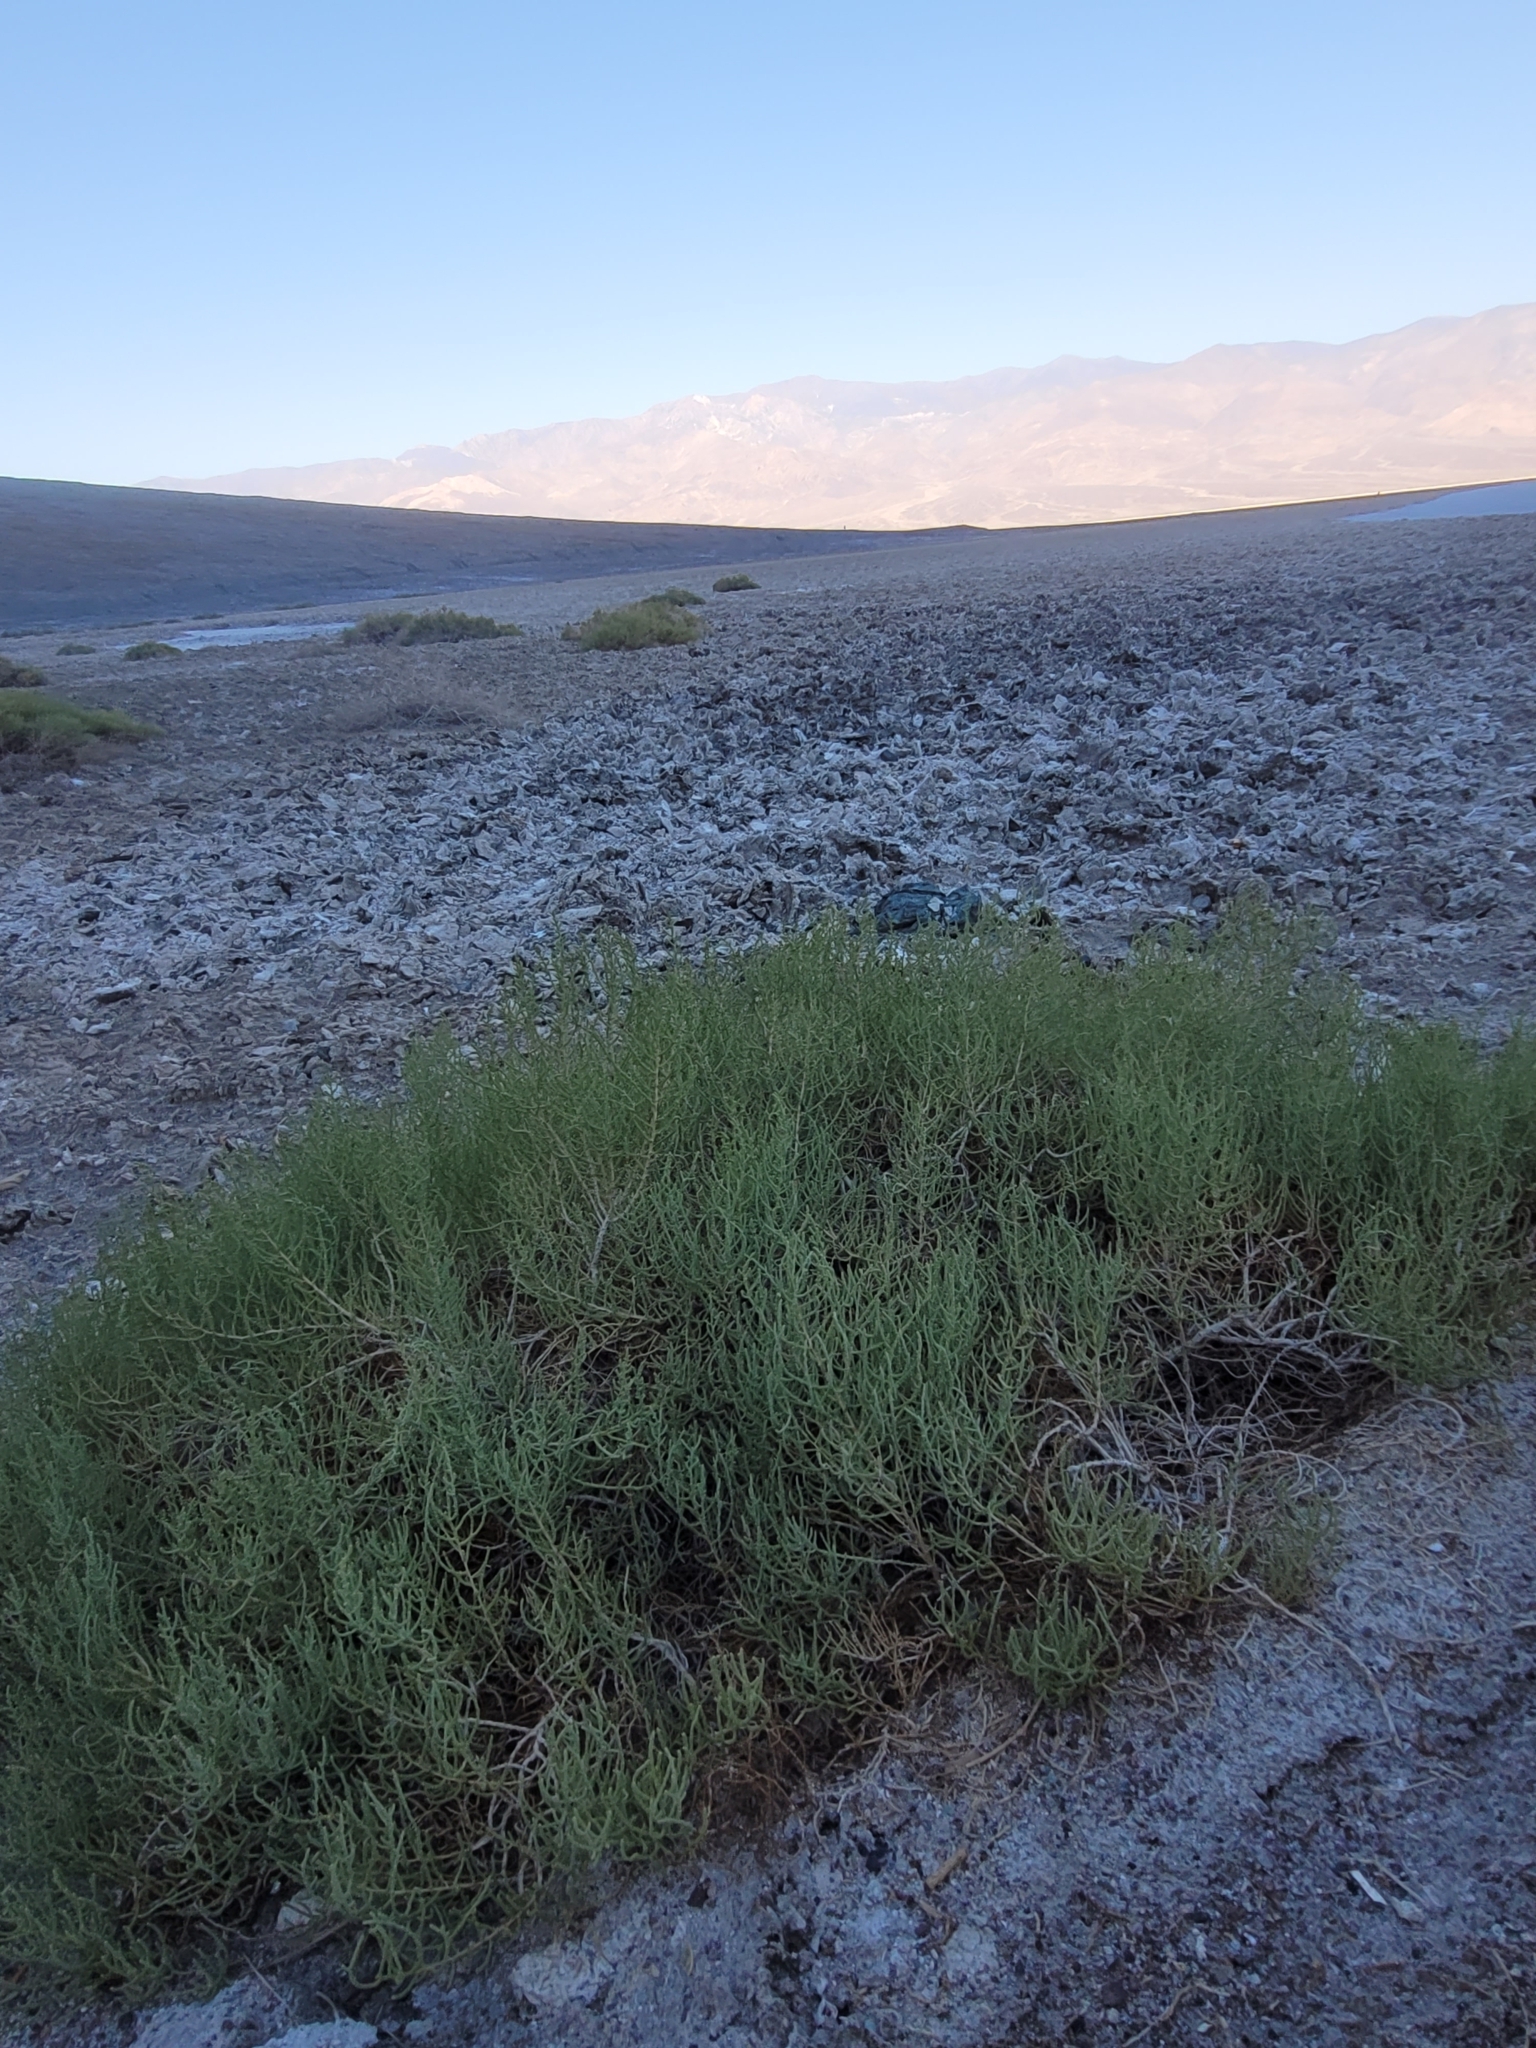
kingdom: Plantae
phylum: Tracheophyta
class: Magnoliopsida
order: Caryophyllales
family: Amaranthaceae
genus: Allenrolfea
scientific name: Allenrolfea occidentalis
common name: Iodine-bush
